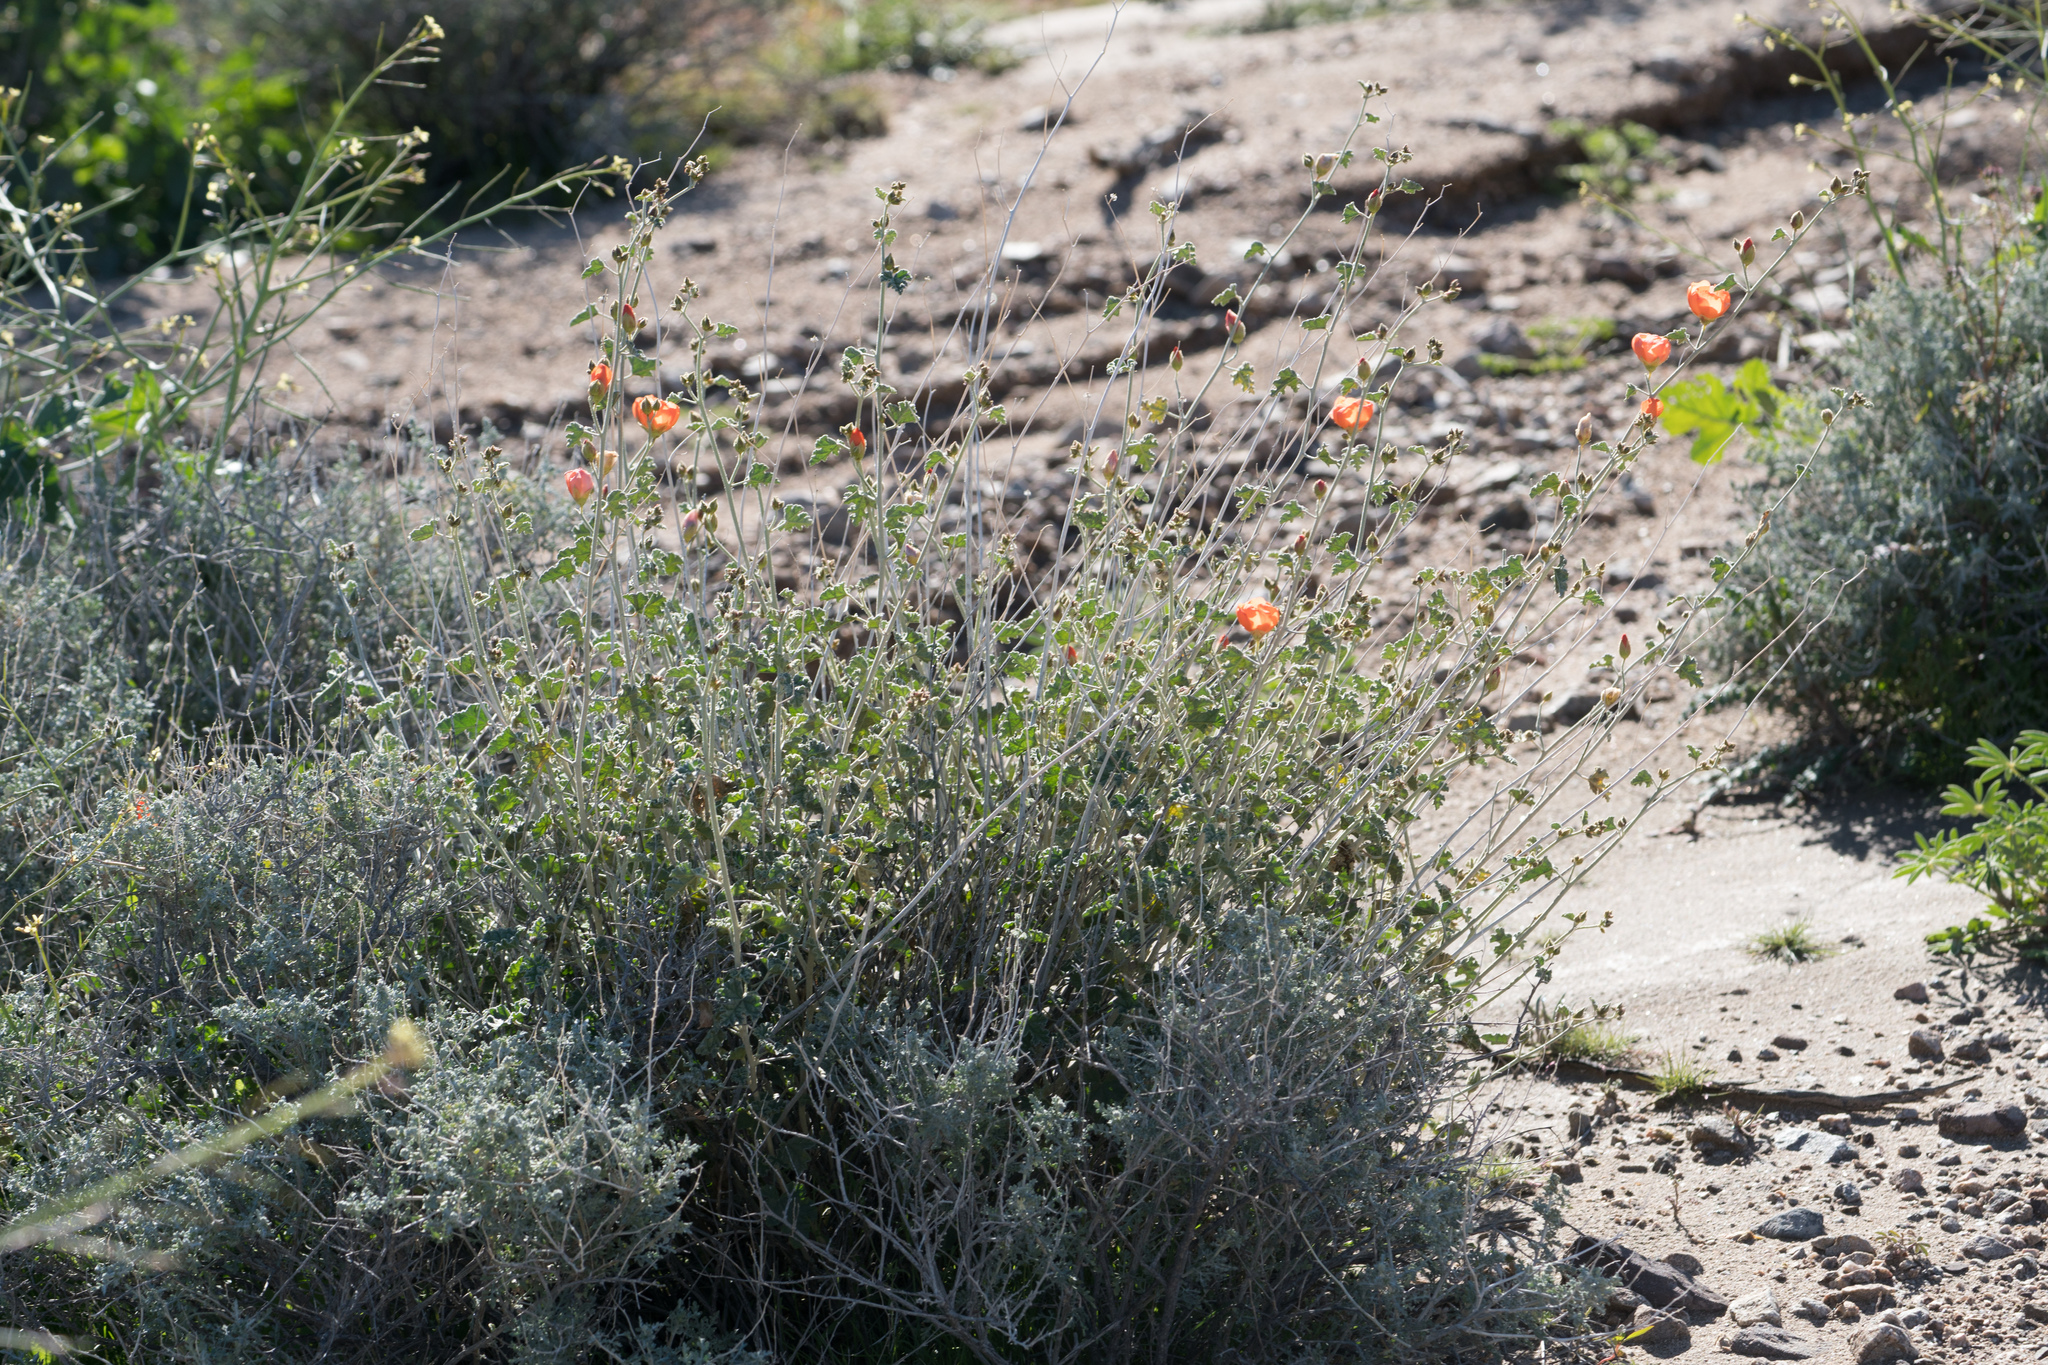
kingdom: Plantae
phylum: Tracheophyta
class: Magnoliopsida
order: Malvales
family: Malvaceae
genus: Sphaeralcea
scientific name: Sphaeralcea ambigua
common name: Apricot globe-mallow
